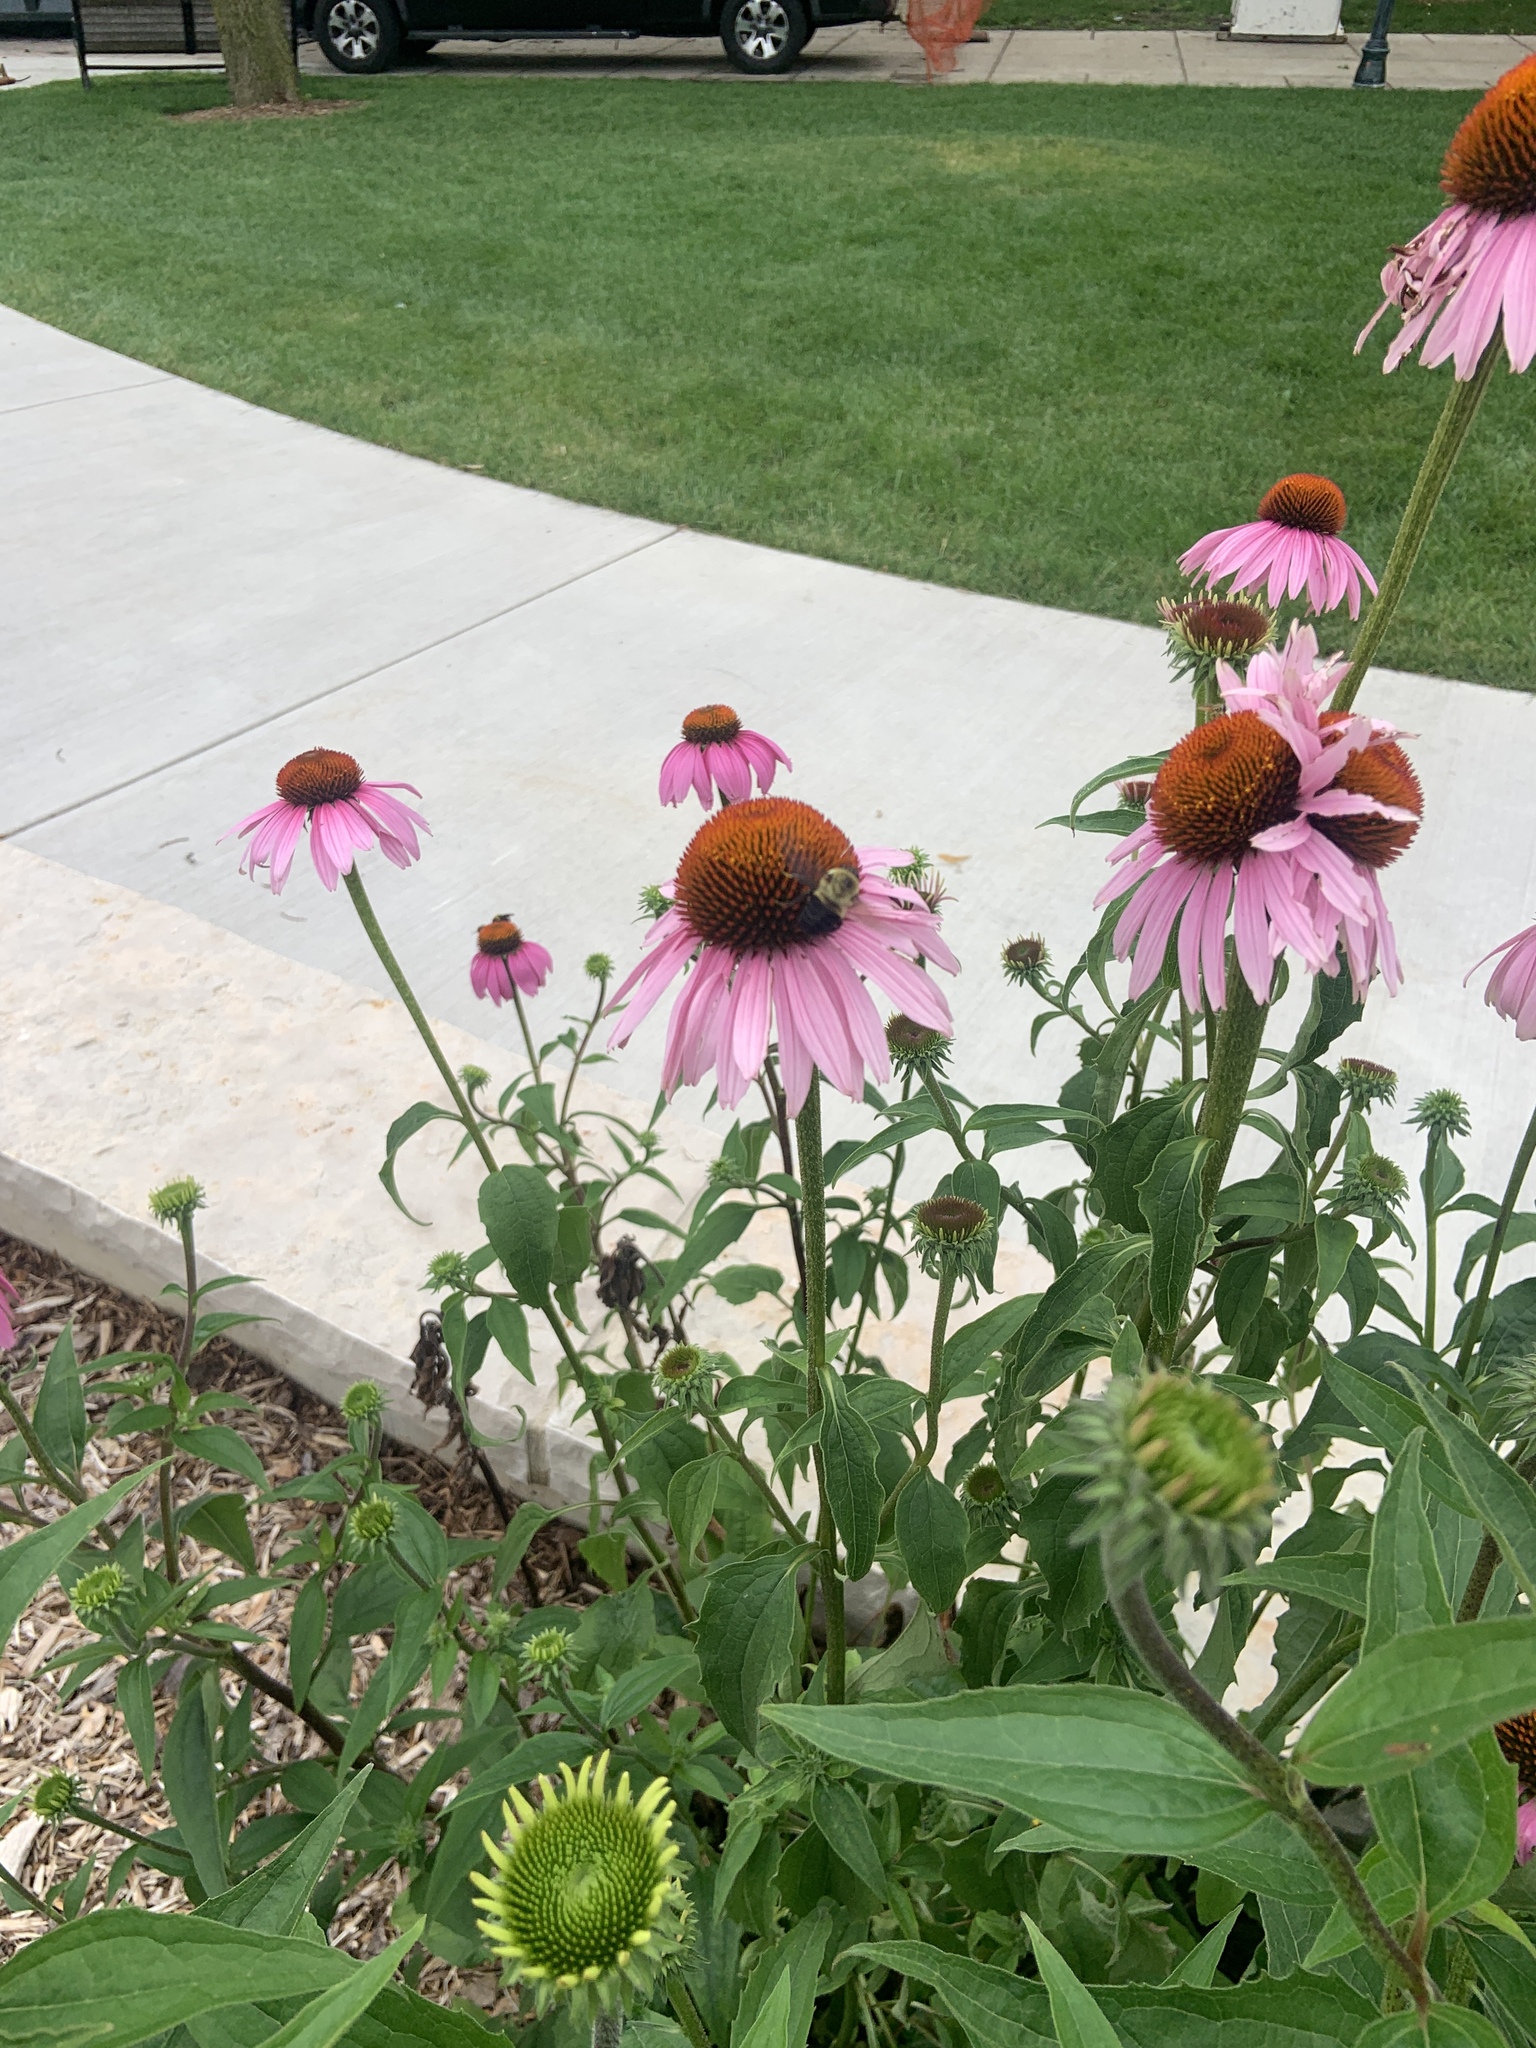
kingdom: Animalia
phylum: Arthropoda
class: Insecta
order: Hymenoptera
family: Apidae
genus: Bombus
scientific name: Bombus griseocollis
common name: Brown-belted bumble bee
